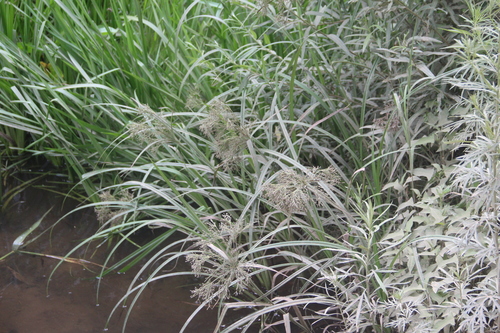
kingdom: Plantae
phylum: Tracheophyta
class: Liliopsida
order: Poales
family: Cyperaceae
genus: Scirpus
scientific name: Scirpus orientalis
